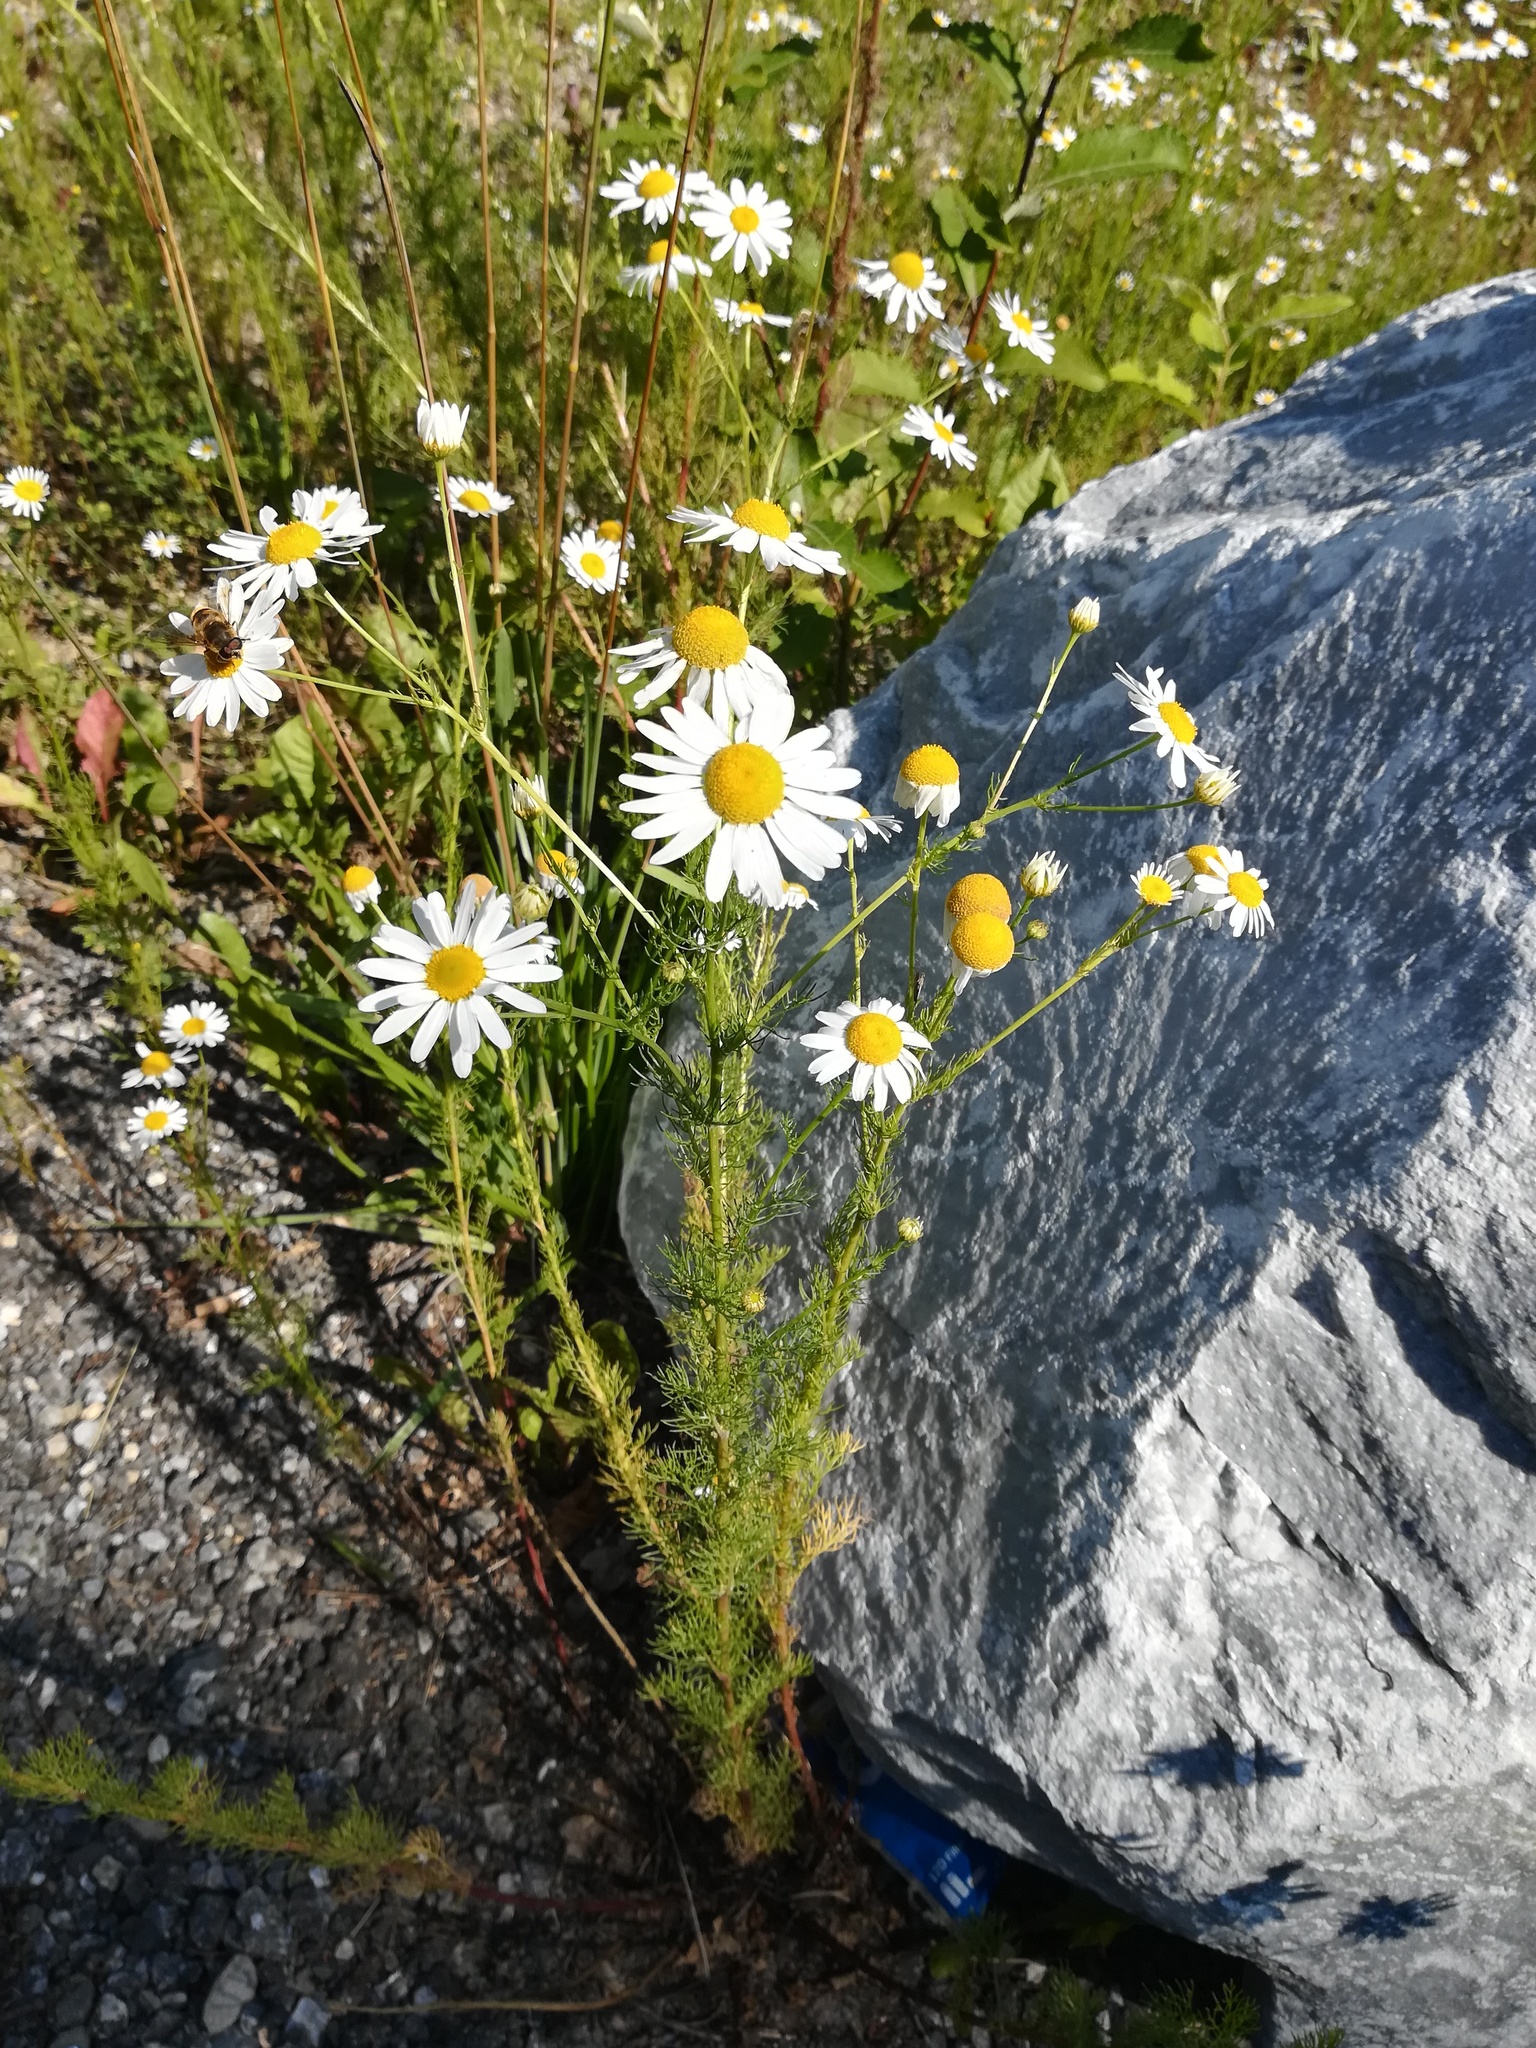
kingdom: Plantae
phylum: Tracheophyta
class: Magnoliopsida
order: Asterales
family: Asteraceae
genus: Tripleurospermum
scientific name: Tripleurospermum inodorum
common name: Scentless mayweed
